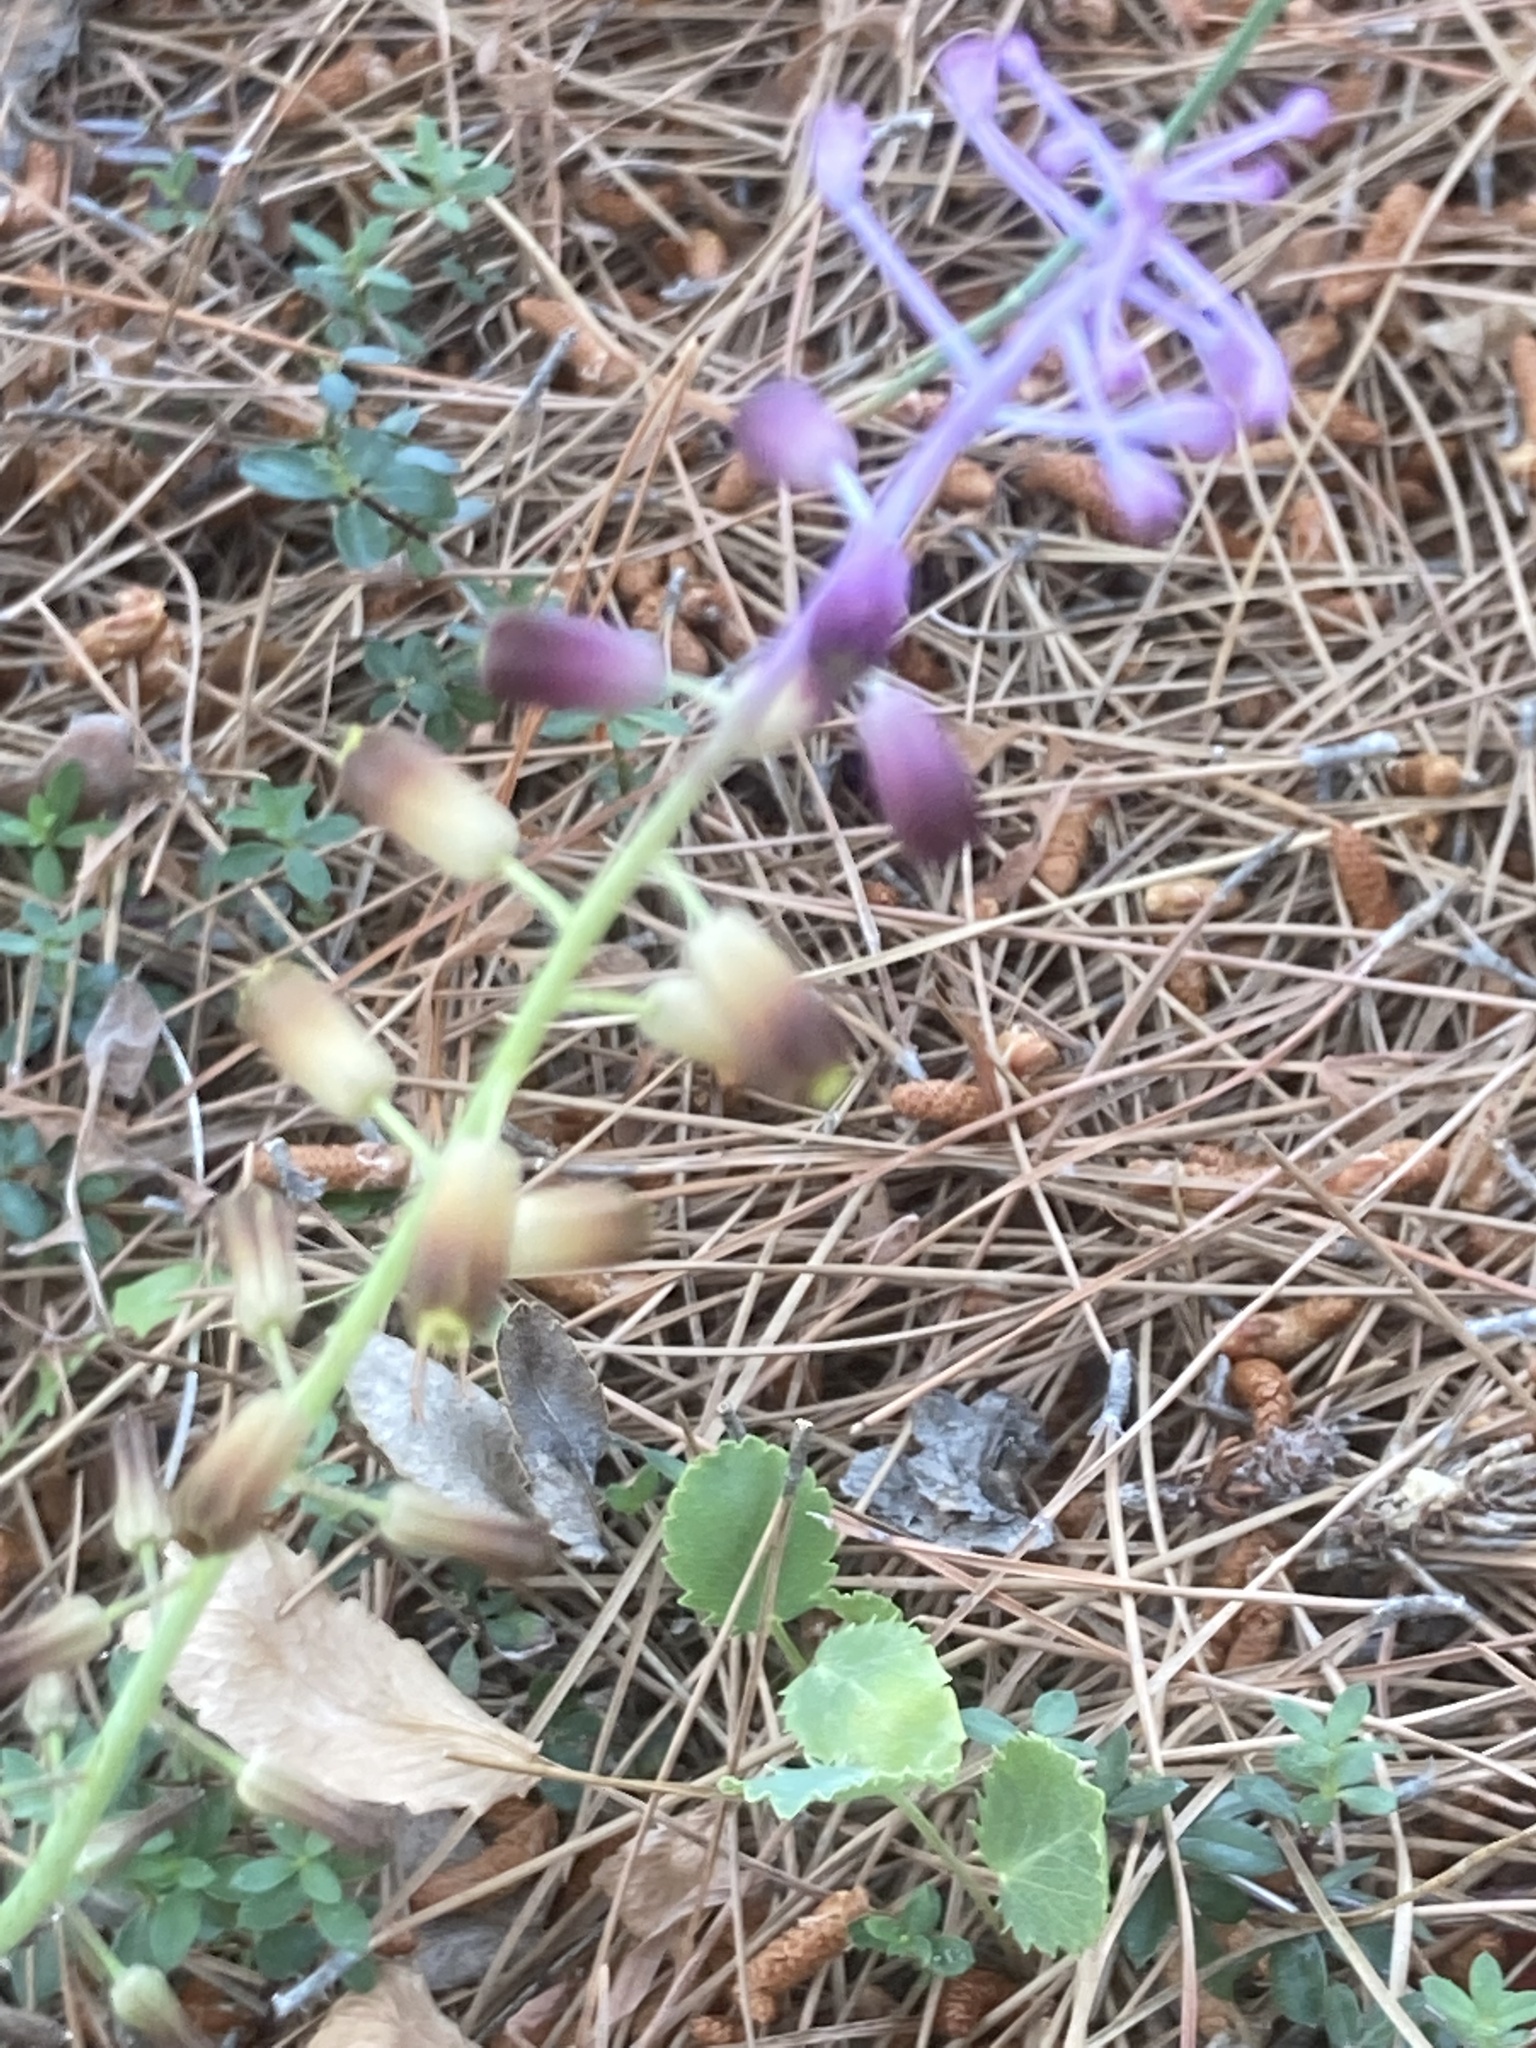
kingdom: Plantae
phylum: Tracheophyta
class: Liliopsida
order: Asparagales
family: Asparagaceae
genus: Muscari
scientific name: Muscari weissii
